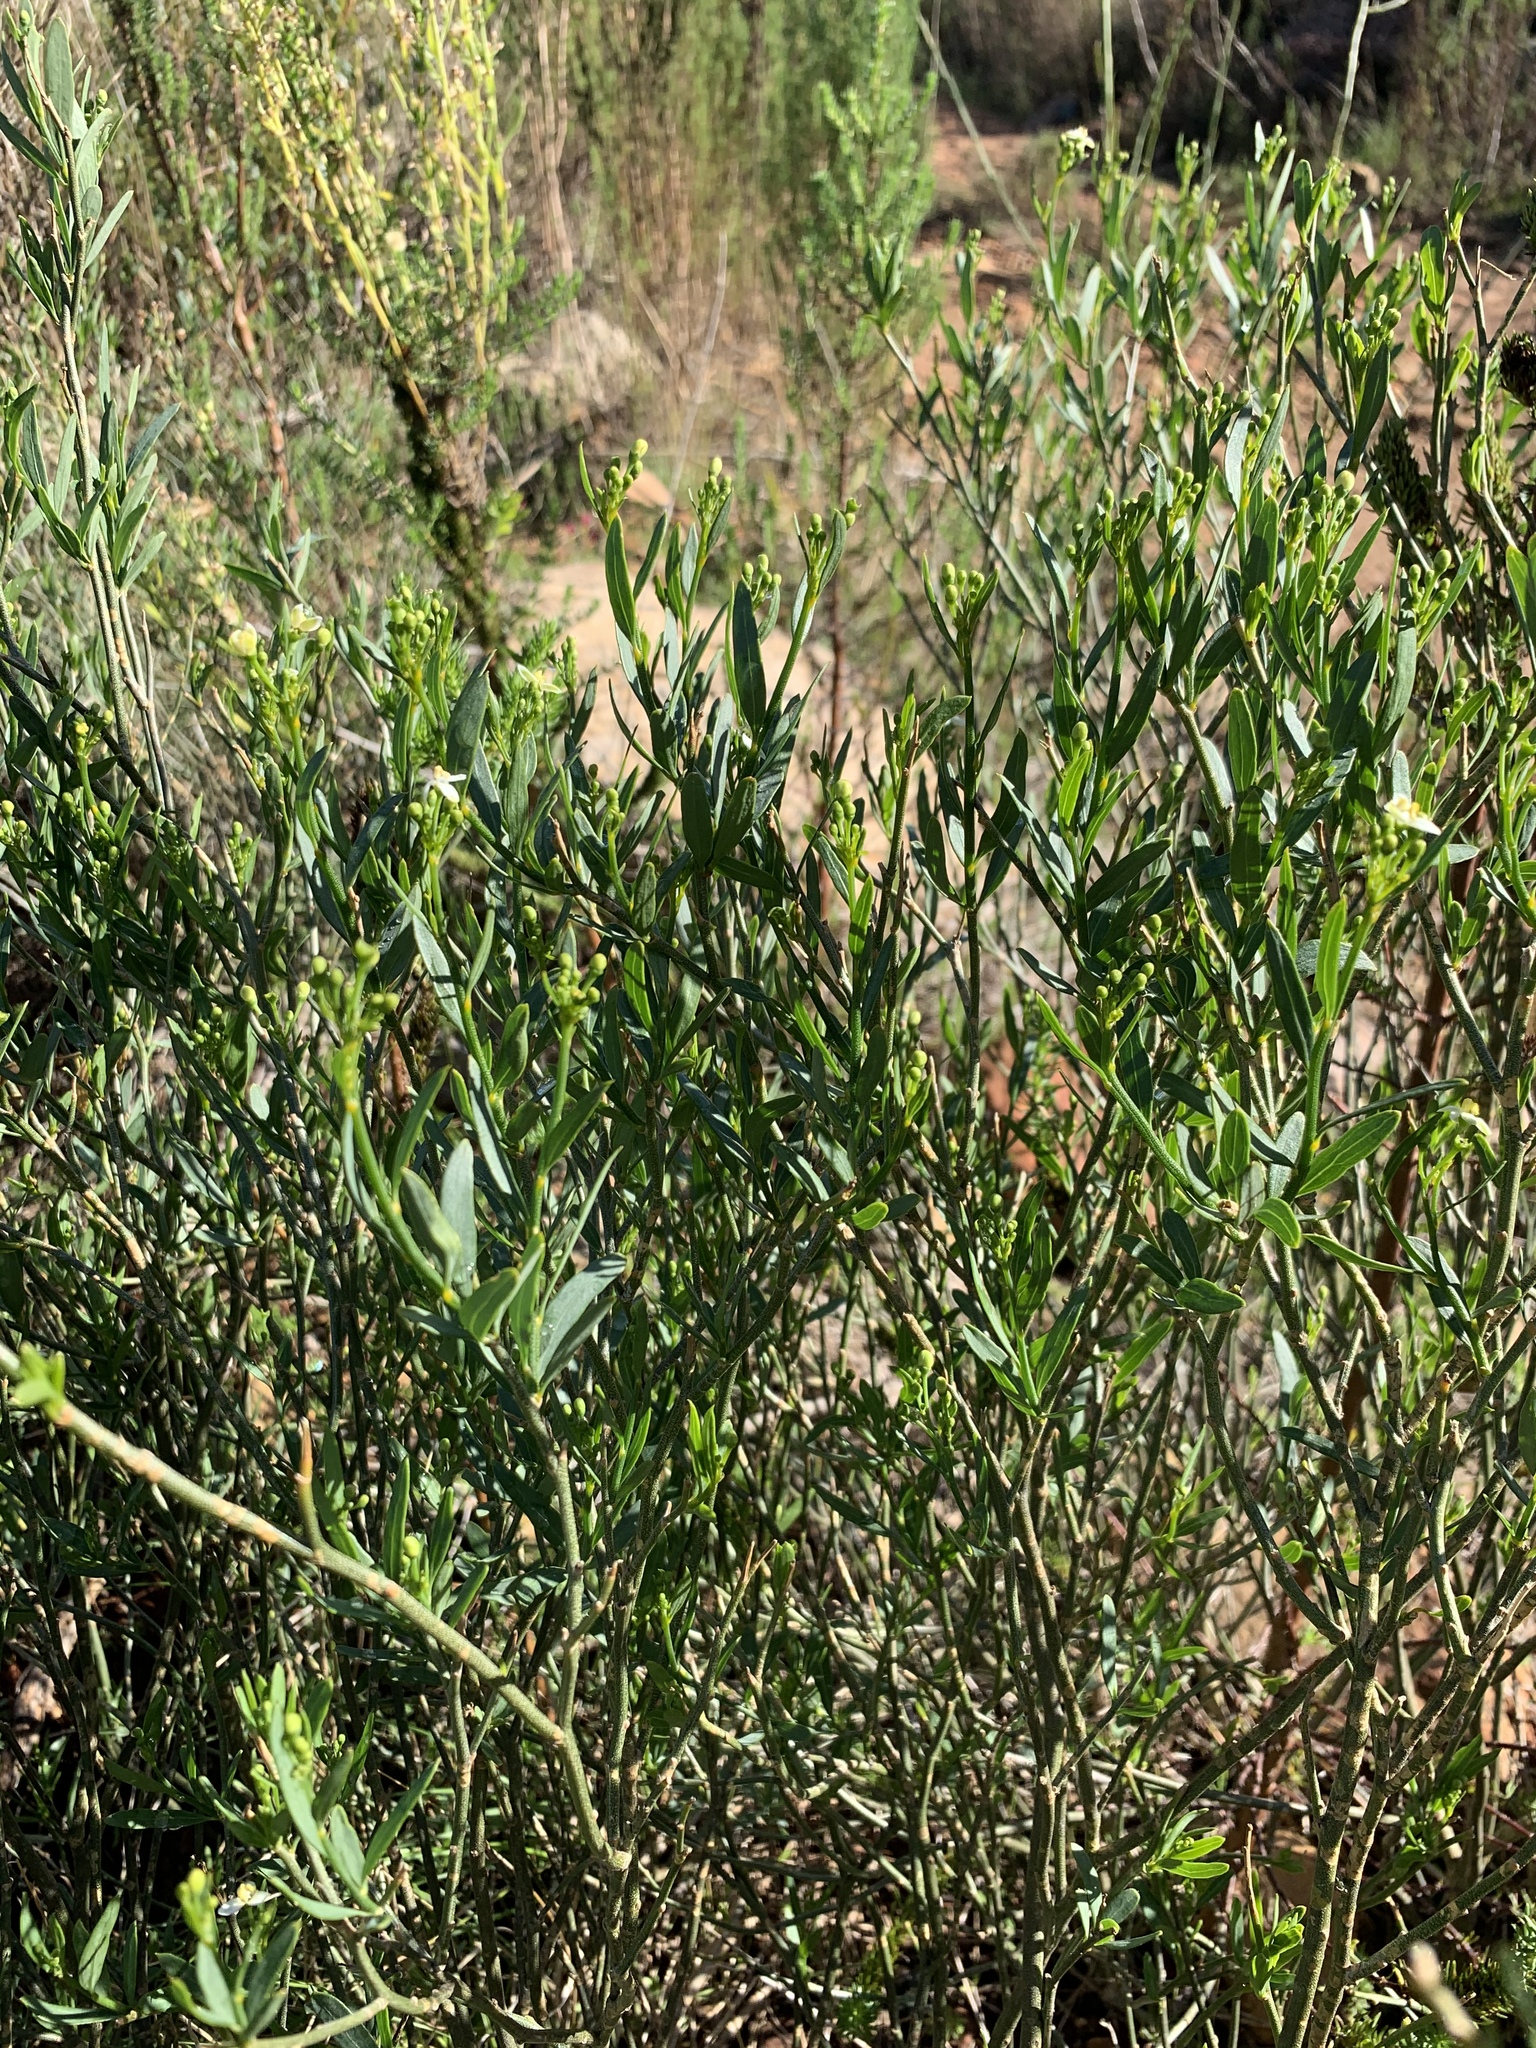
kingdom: Plantae
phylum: Tracheophyta
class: Magnoliopsida
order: Solanales
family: Montiniaceae
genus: Montinia
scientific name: Montinia caryophyllacea
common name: Wild clove-bush
